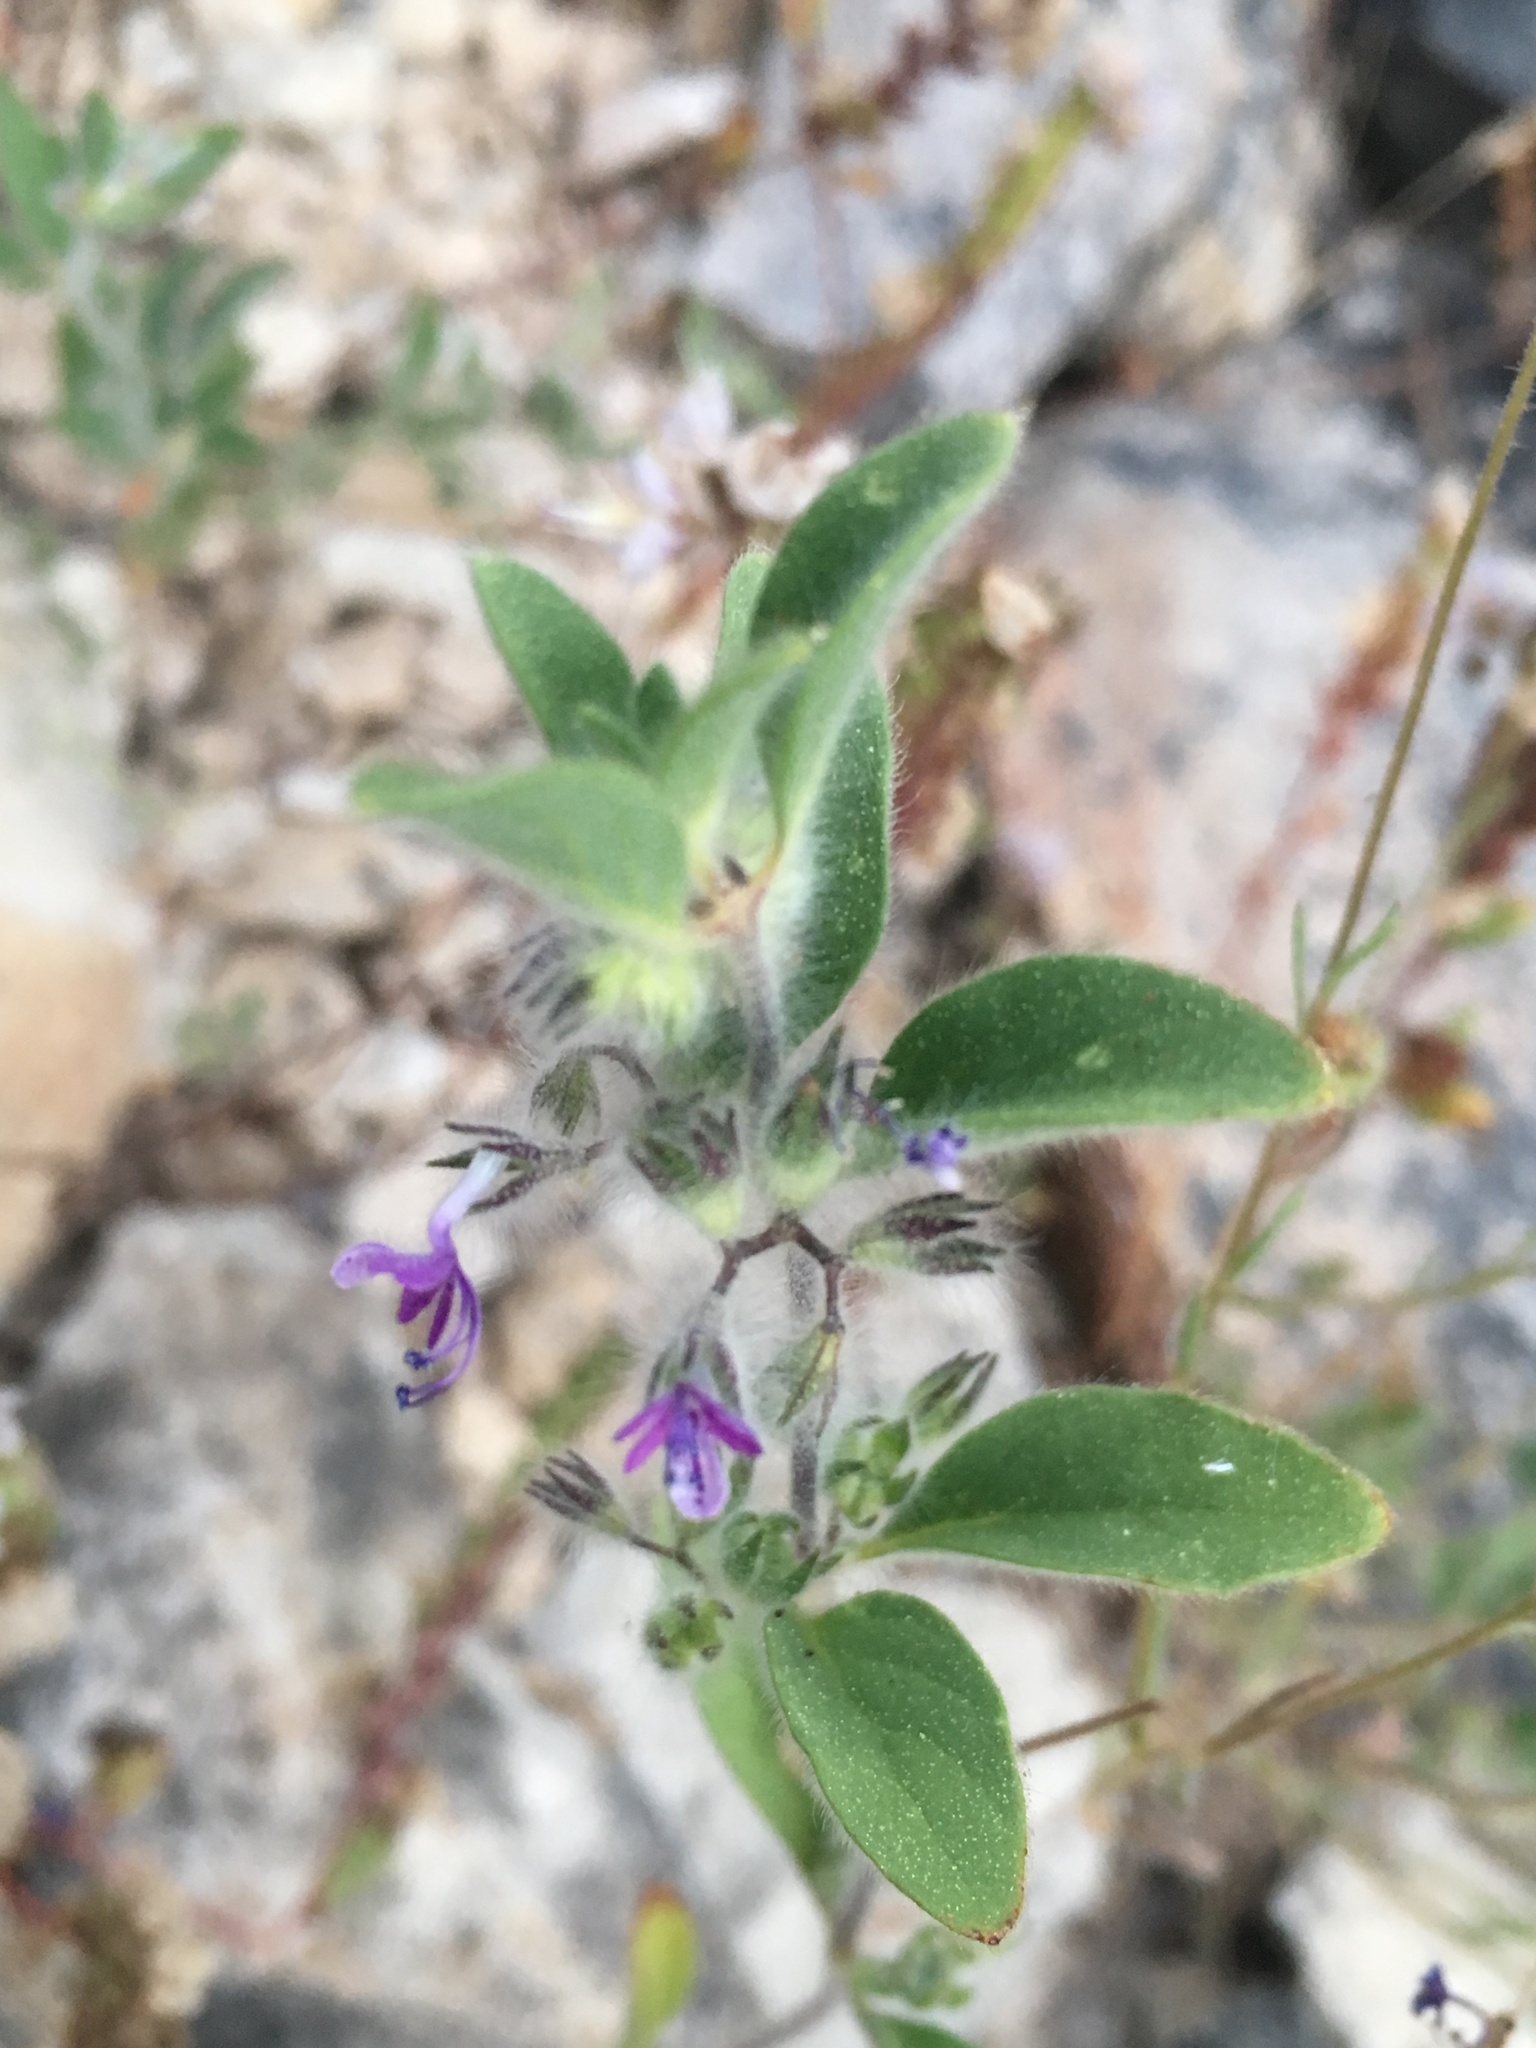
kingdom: Plantae
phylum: Tracheophyta
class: Magnoliopsida
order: Lamiales
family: Lamiaceae
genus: Trichostema
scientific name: Trichostema oblongum
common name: Mountain bluecurls
